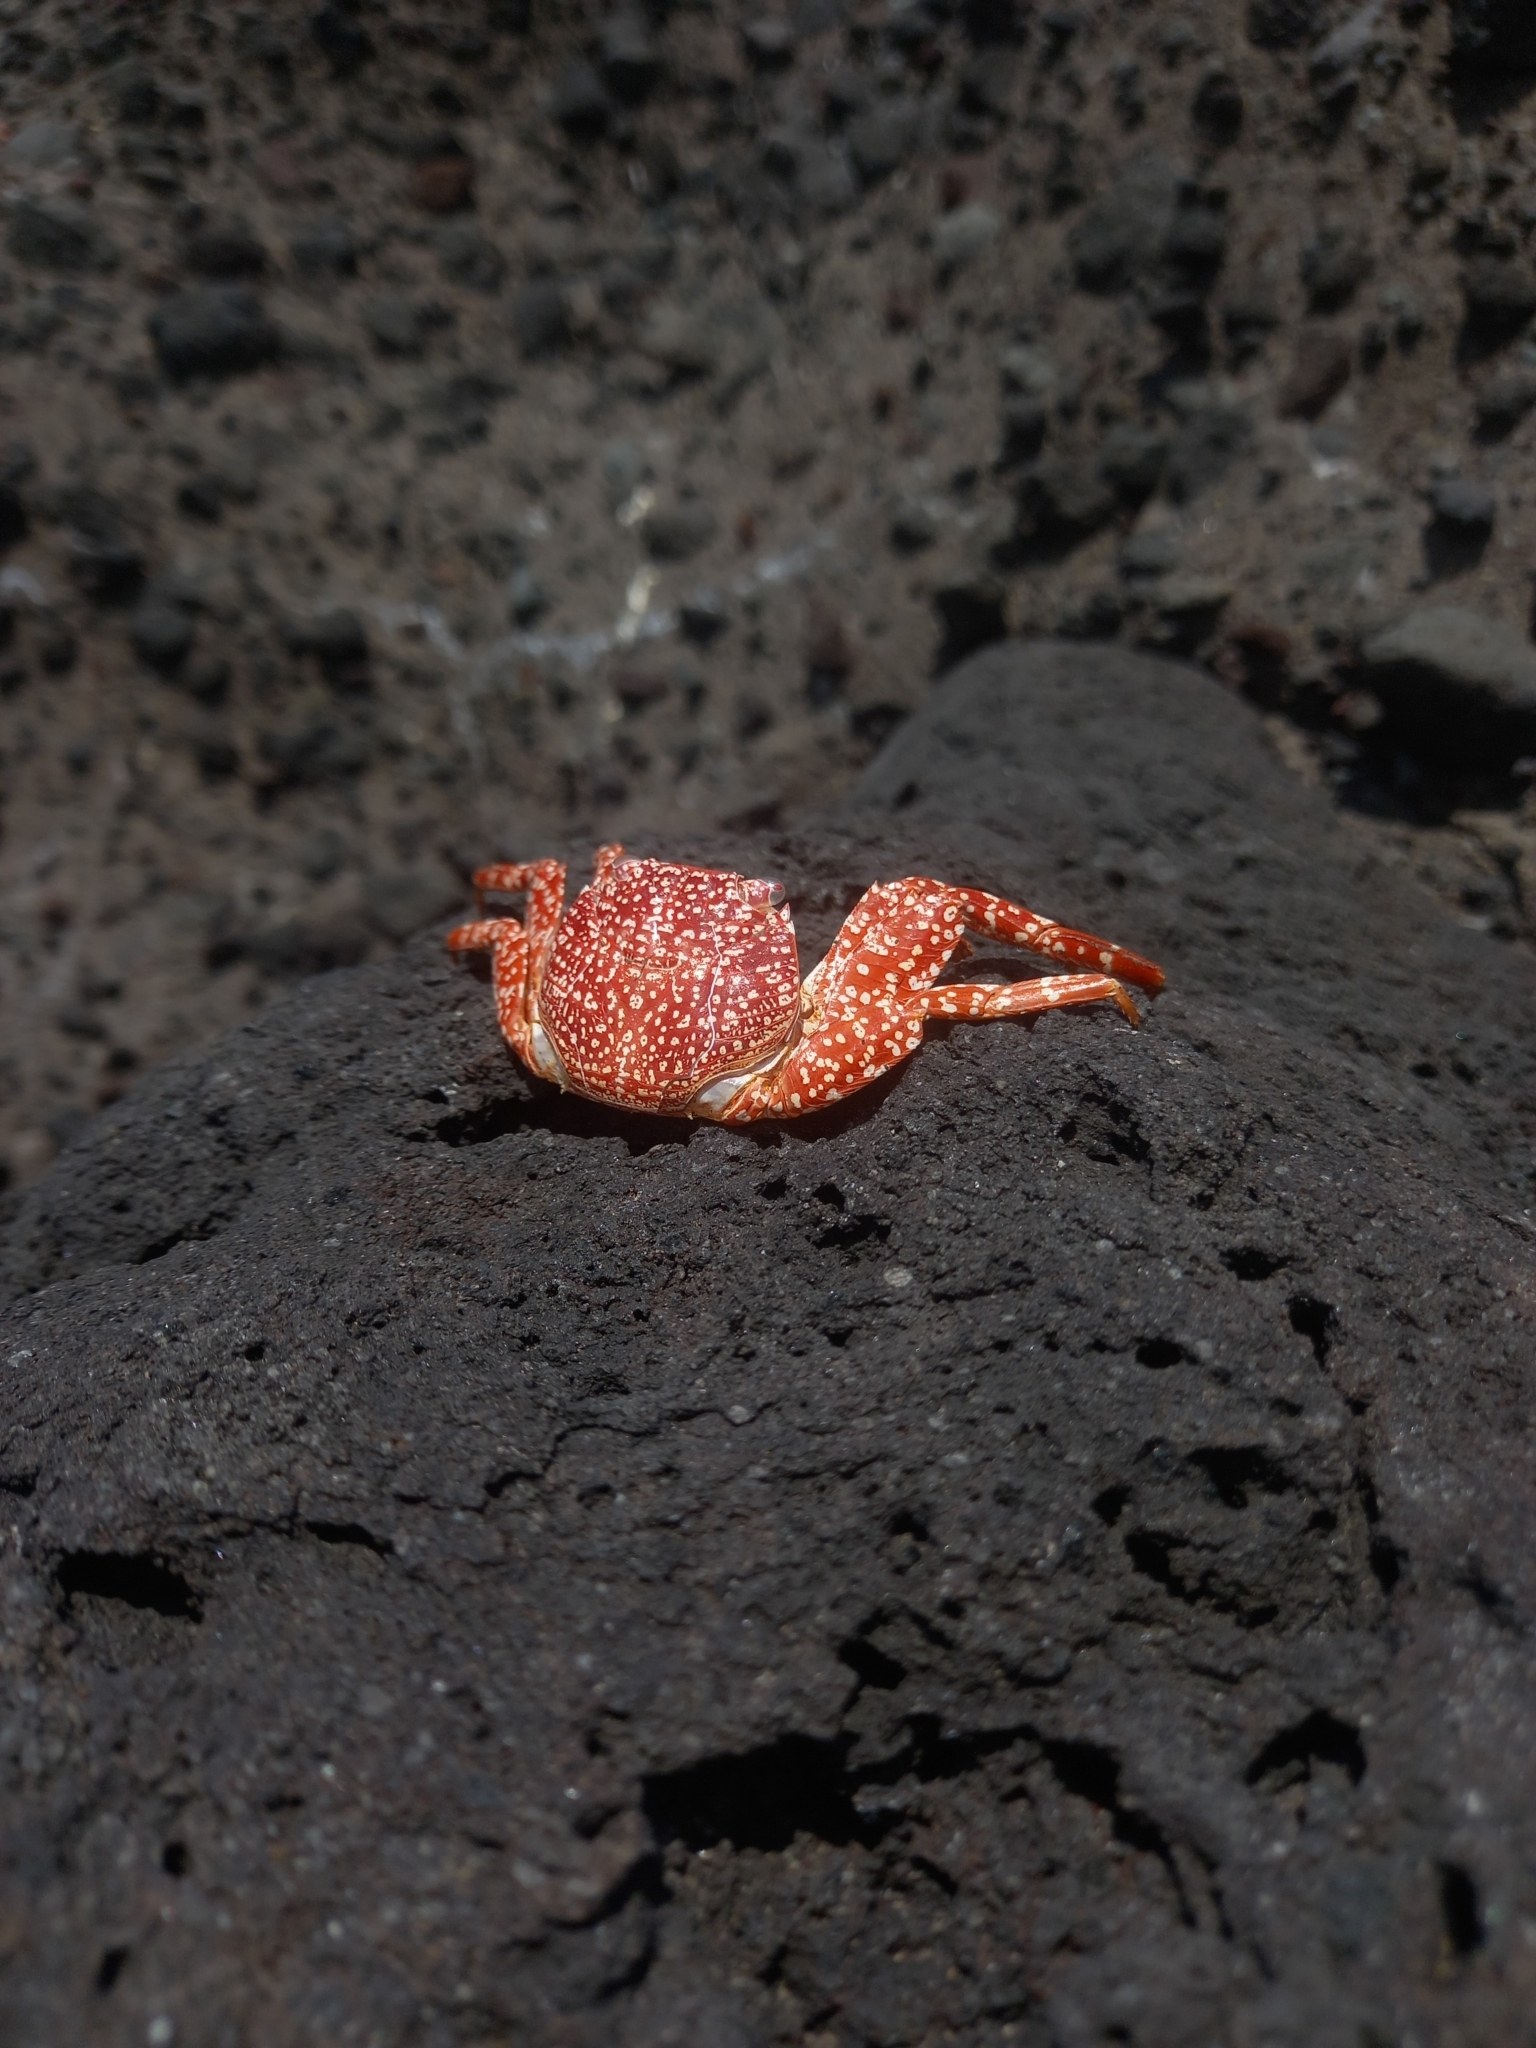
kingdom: Animalia
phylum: Arthropoda
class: Malacostraca
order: Decapoda
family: Grapsidae
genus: Grapsus
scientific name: Grapsus grapsus
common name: Sally lightfoot
